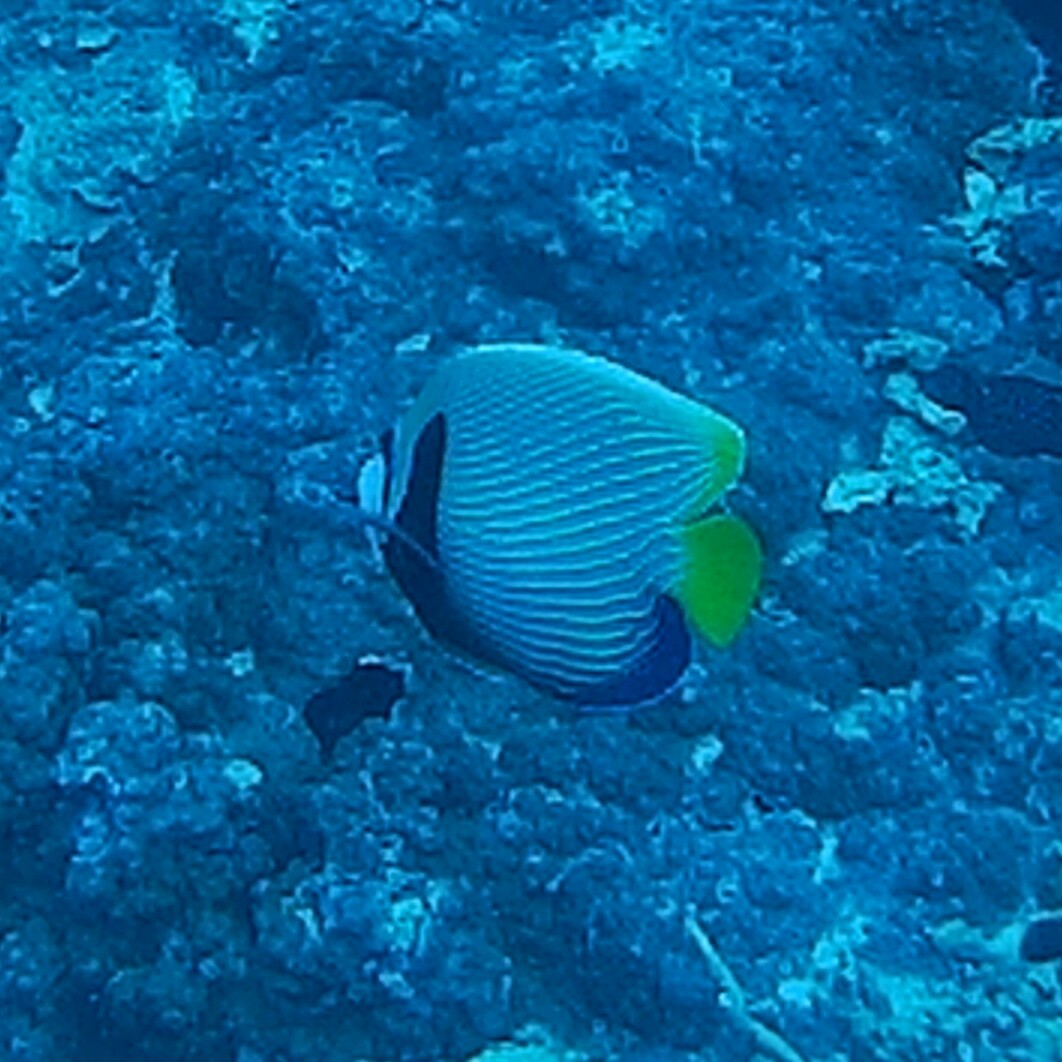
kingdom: Animalia
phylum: Chordata
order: Perciformes
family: Pomacanthidae
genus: Pomacanthus
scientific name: Pomacanthus imperator
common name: Emperor angelfish
